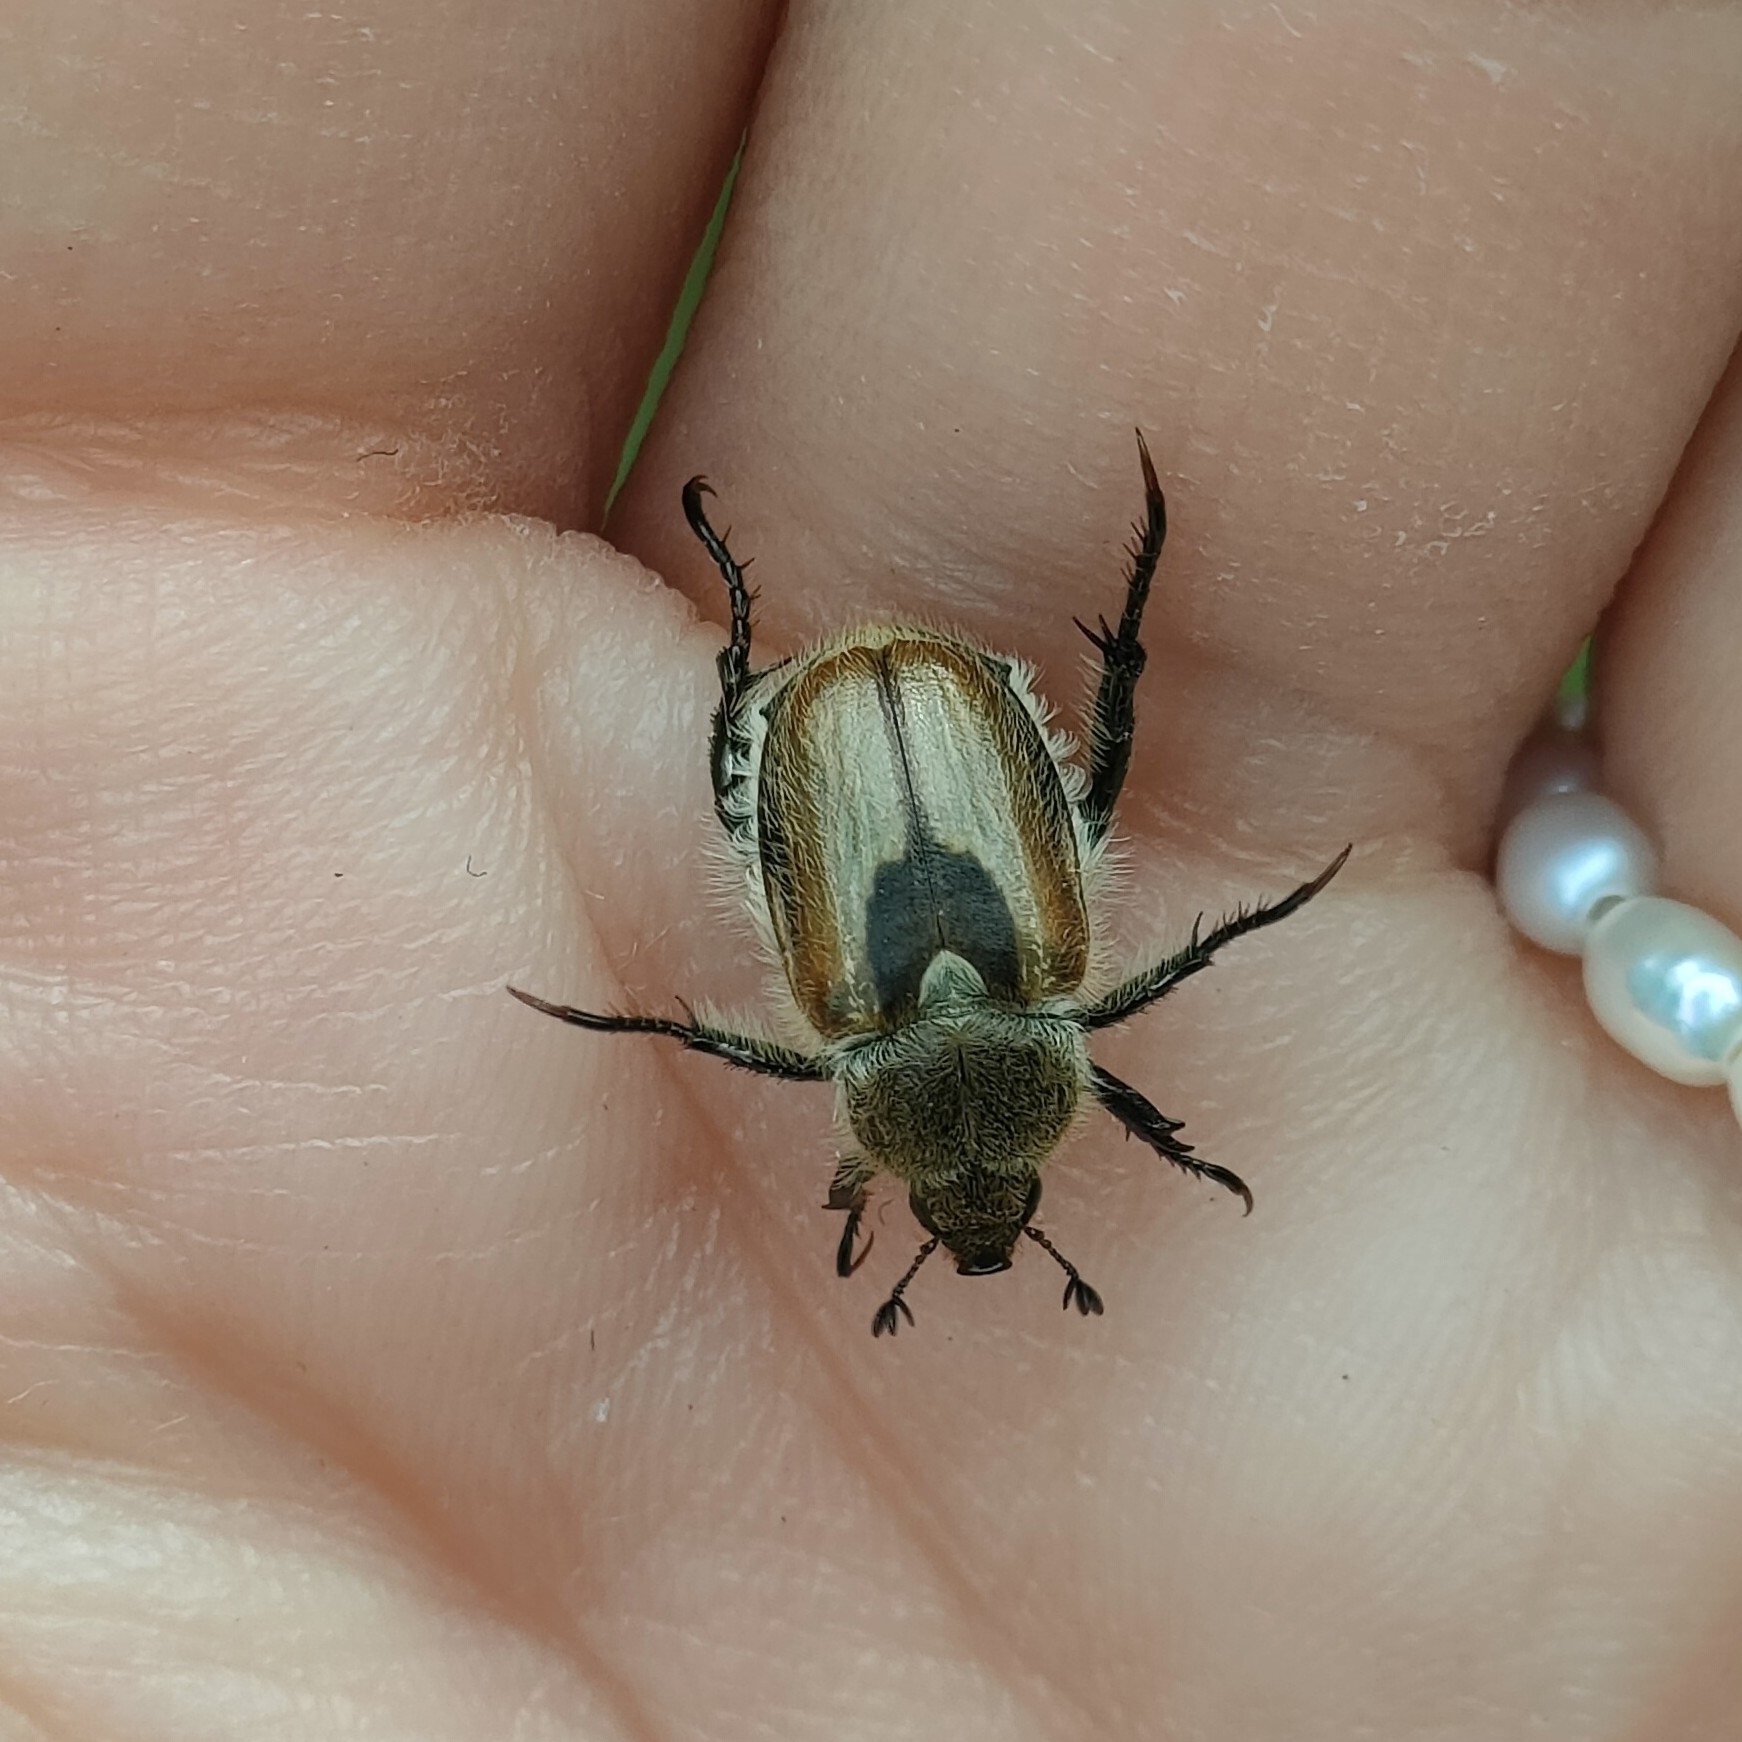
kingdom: Animalia
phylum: Arthropoda
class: Insecta
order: Coleoptera
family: Scarabaeidae
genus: Chaetopteroplia
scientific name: Chaetopteroplia segetum
